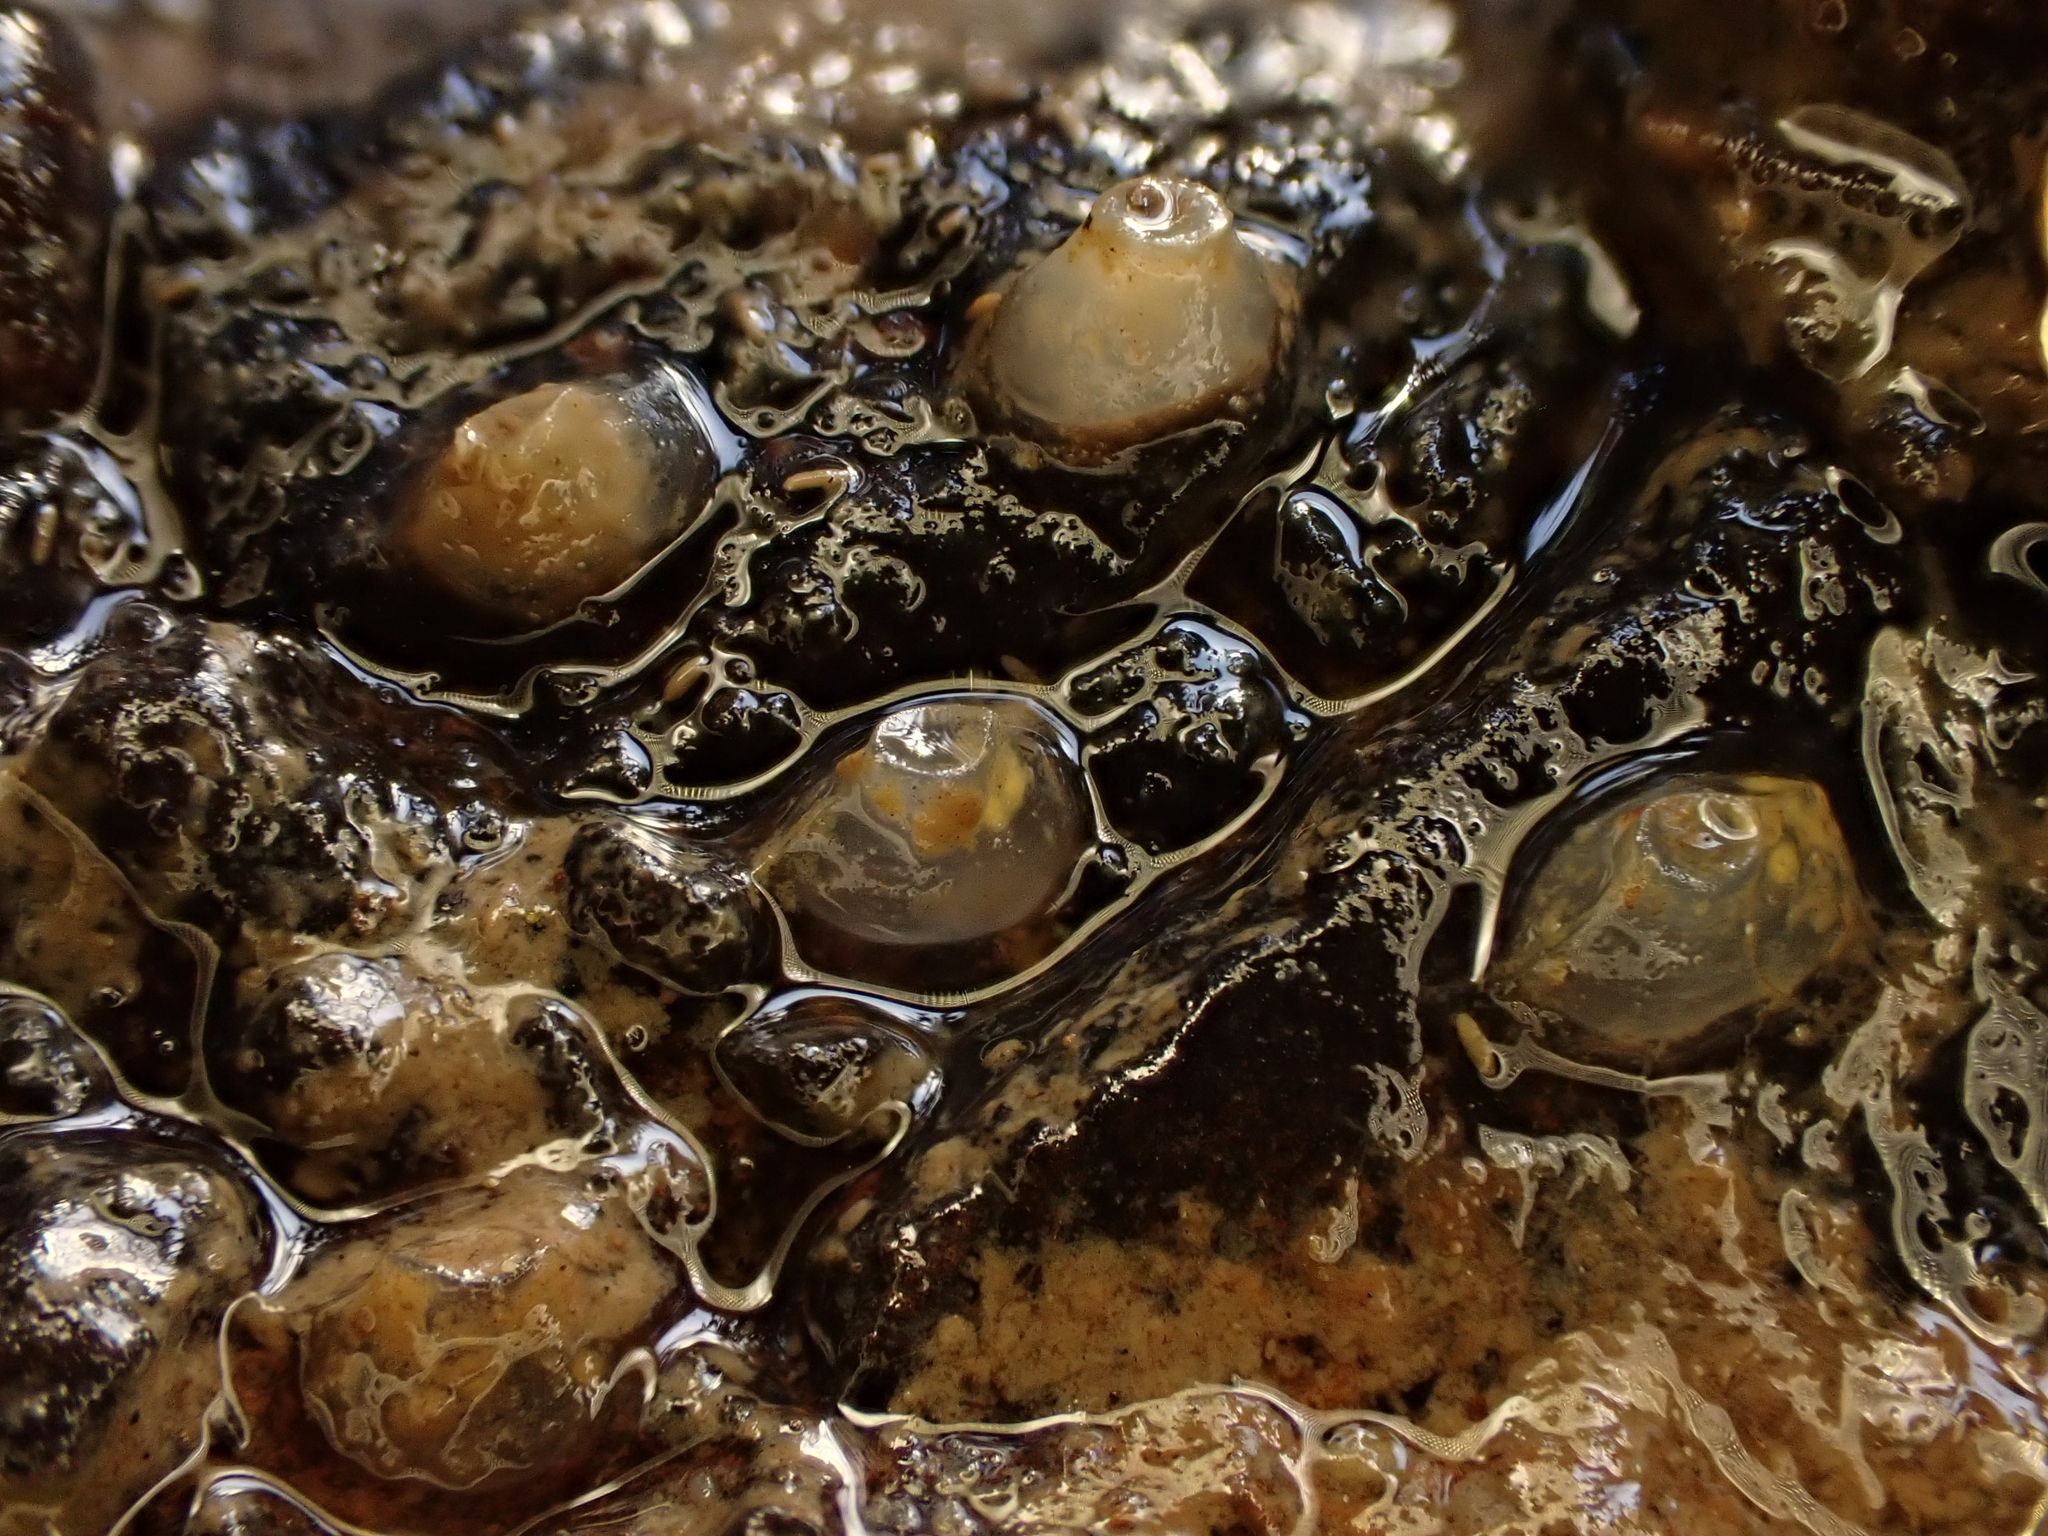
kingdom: Animalia
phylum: Mollusca
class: Gastropoda
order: Neogastropoda
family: Cominellidae
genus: Cominella
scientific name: Cominella glandiformis
